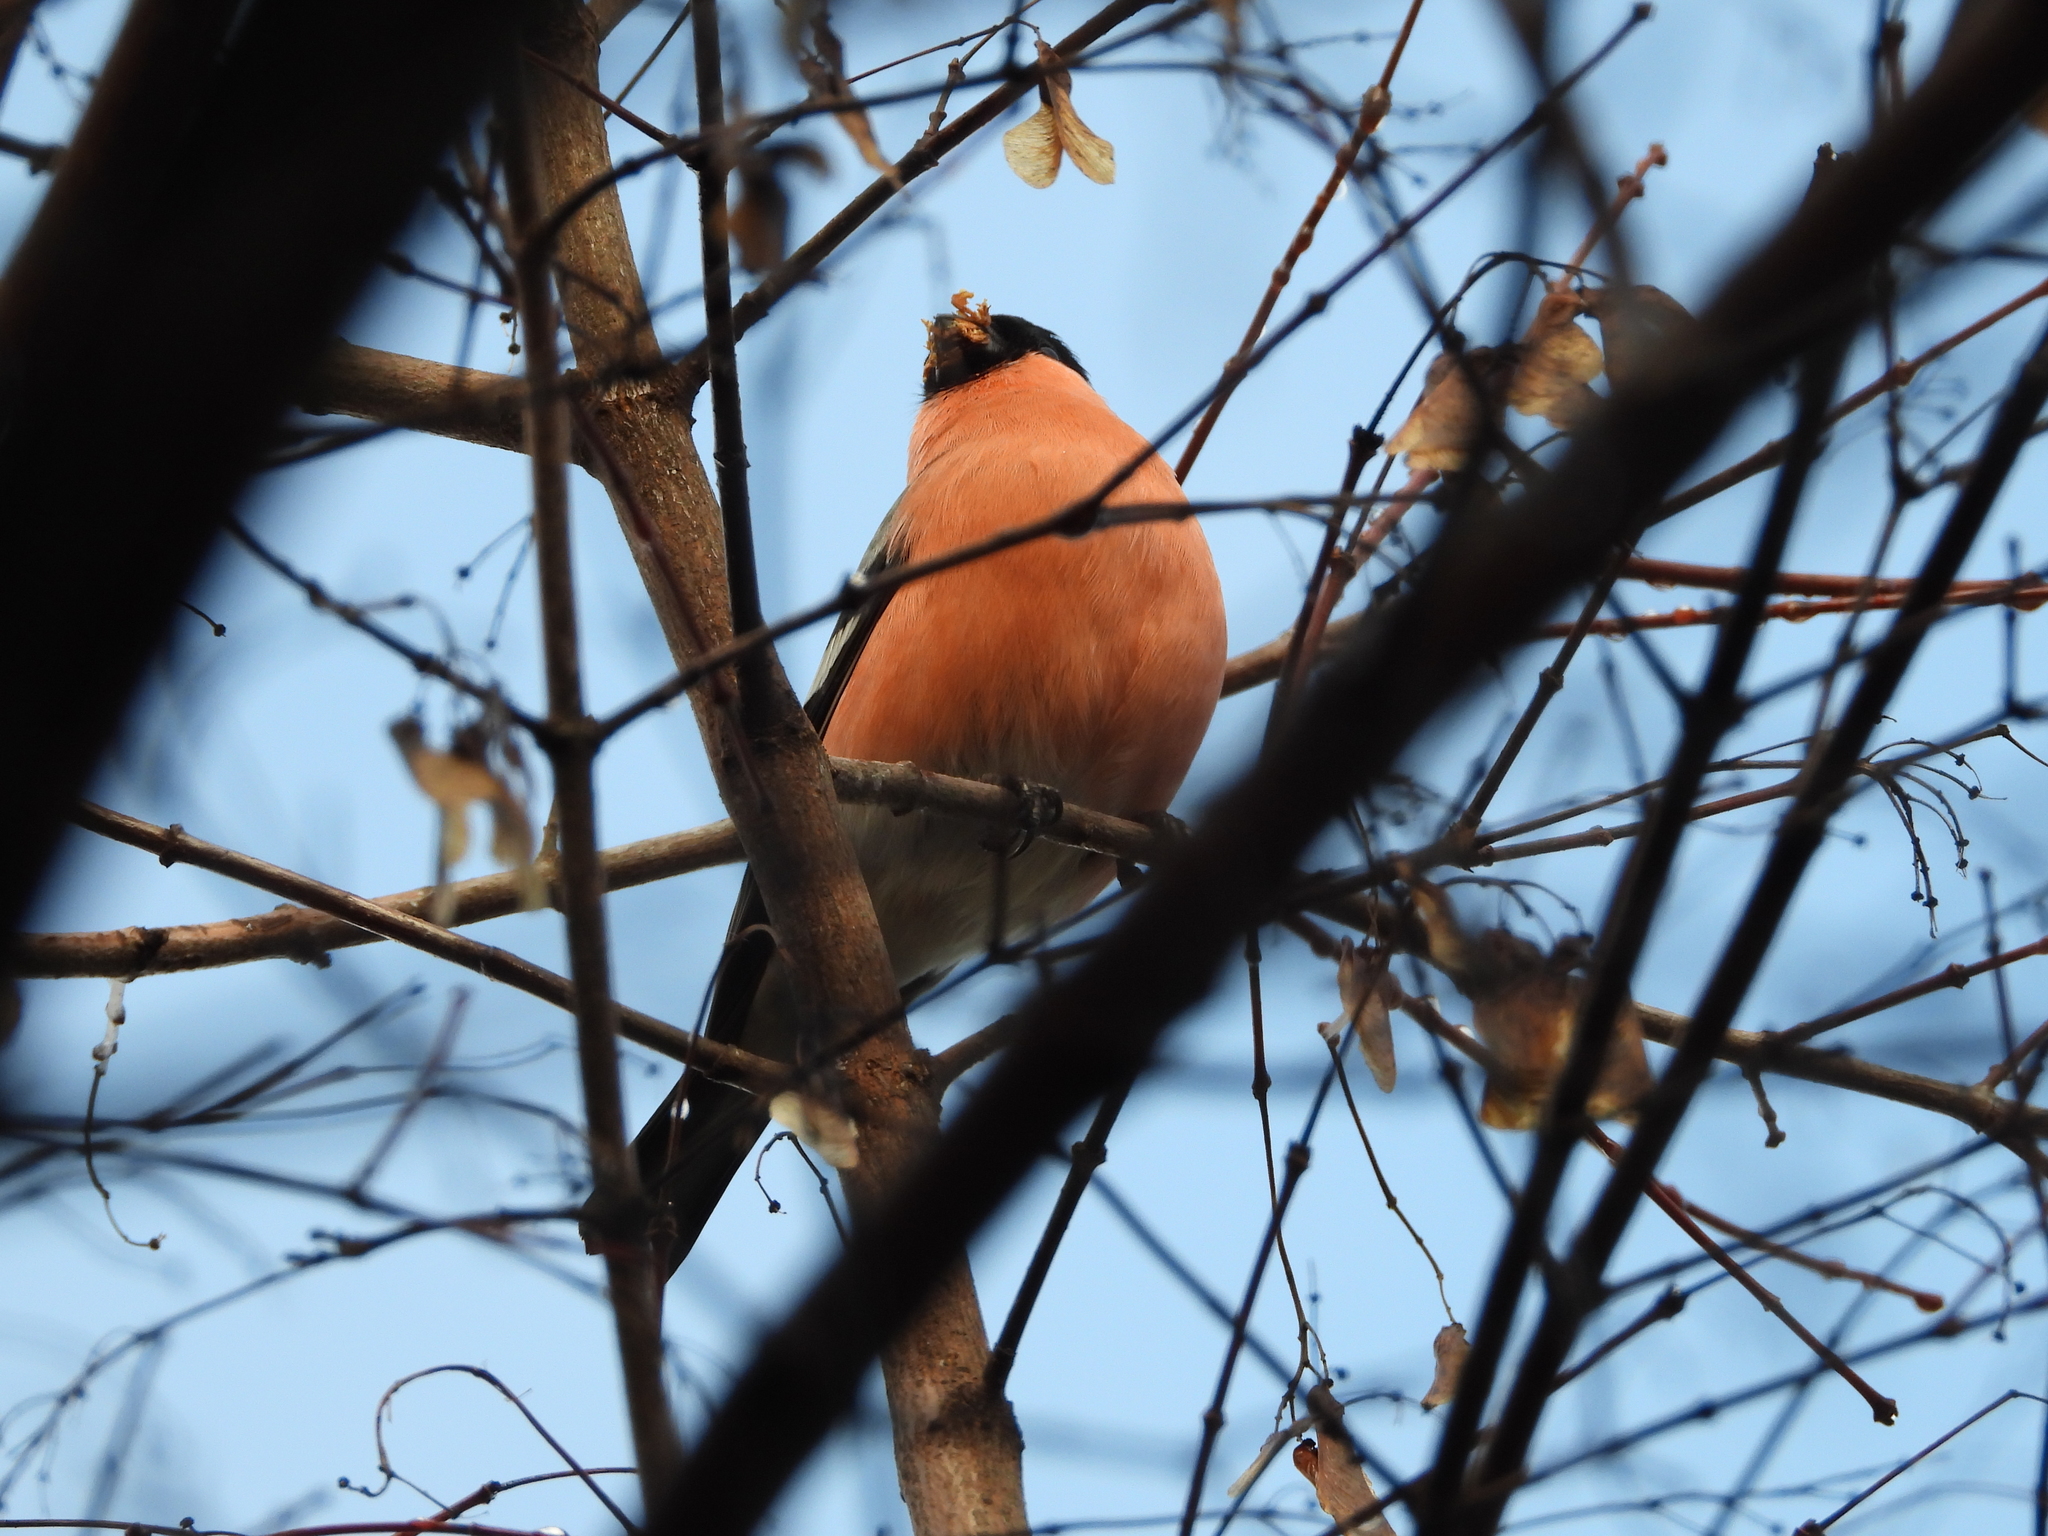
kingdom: Animalia
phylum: Chordata
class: Aves
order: Passeriformes
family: Fringillidae
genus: Pyrrhula
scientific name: Pyrrhula pyrrhula
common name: Eurasian bullfinch
